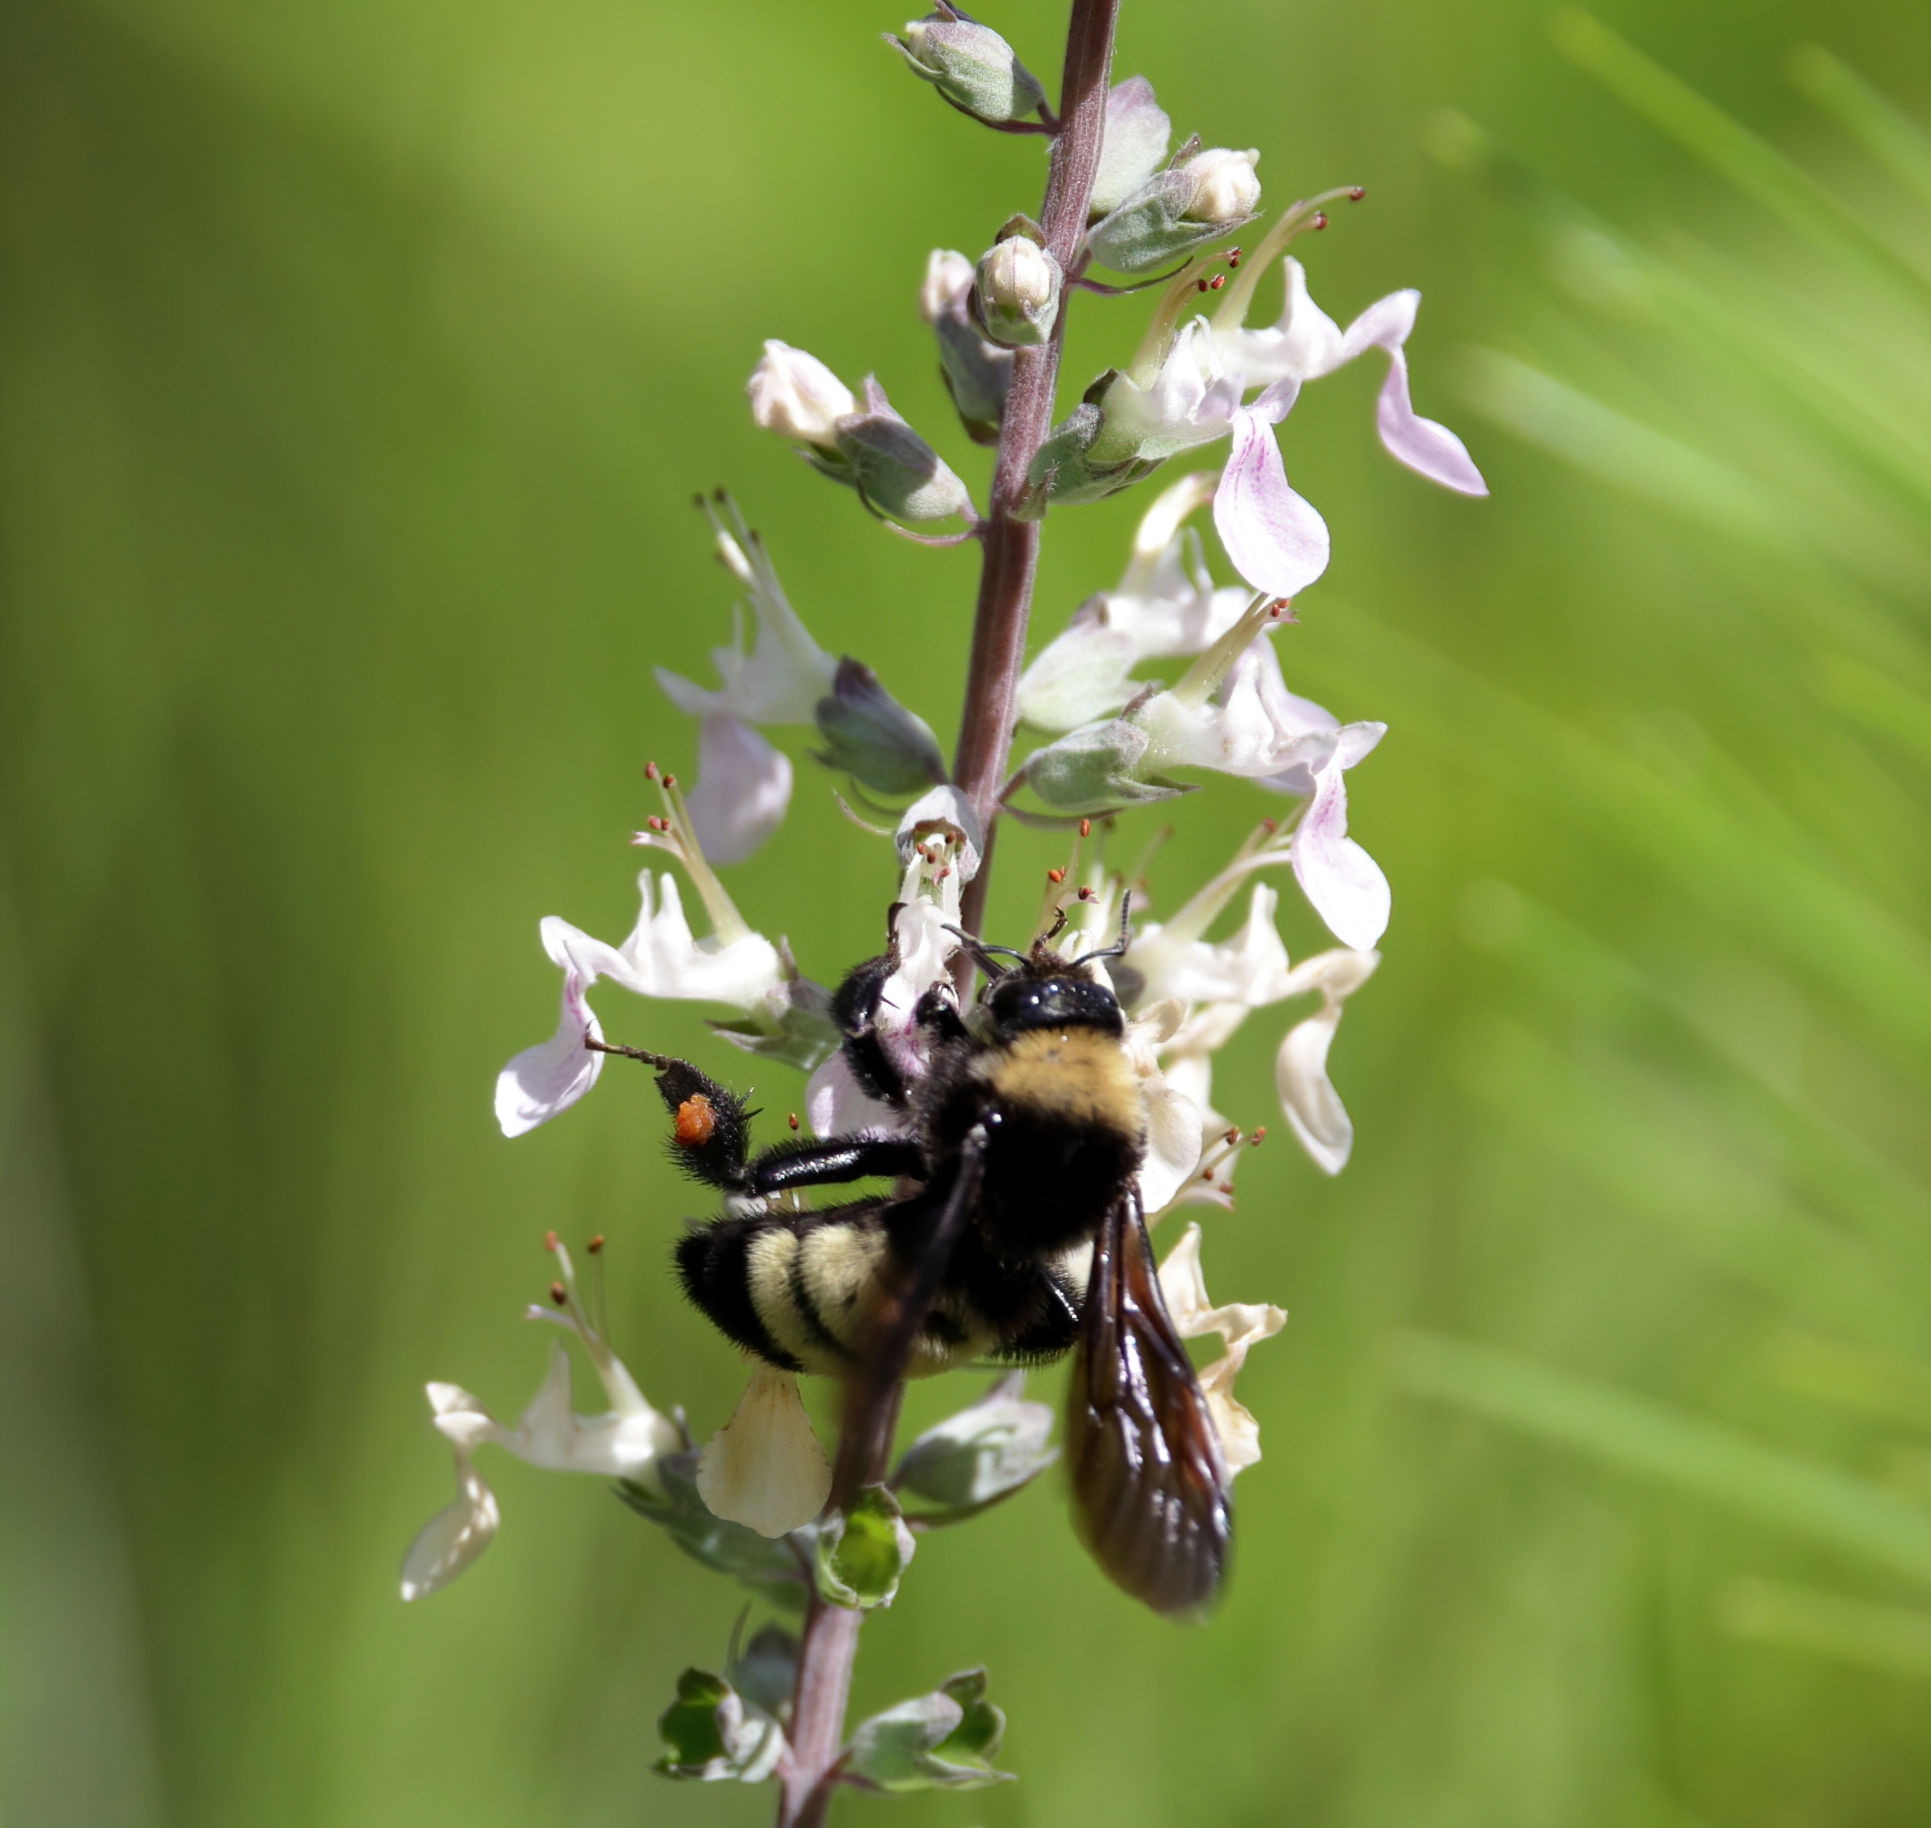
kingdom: Animalia
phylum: Arthropoda
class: Insecta
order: Hymenoptera
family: Apidae
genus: Bombus
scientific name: Bombus pensylvanicus
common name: Bumble bee
